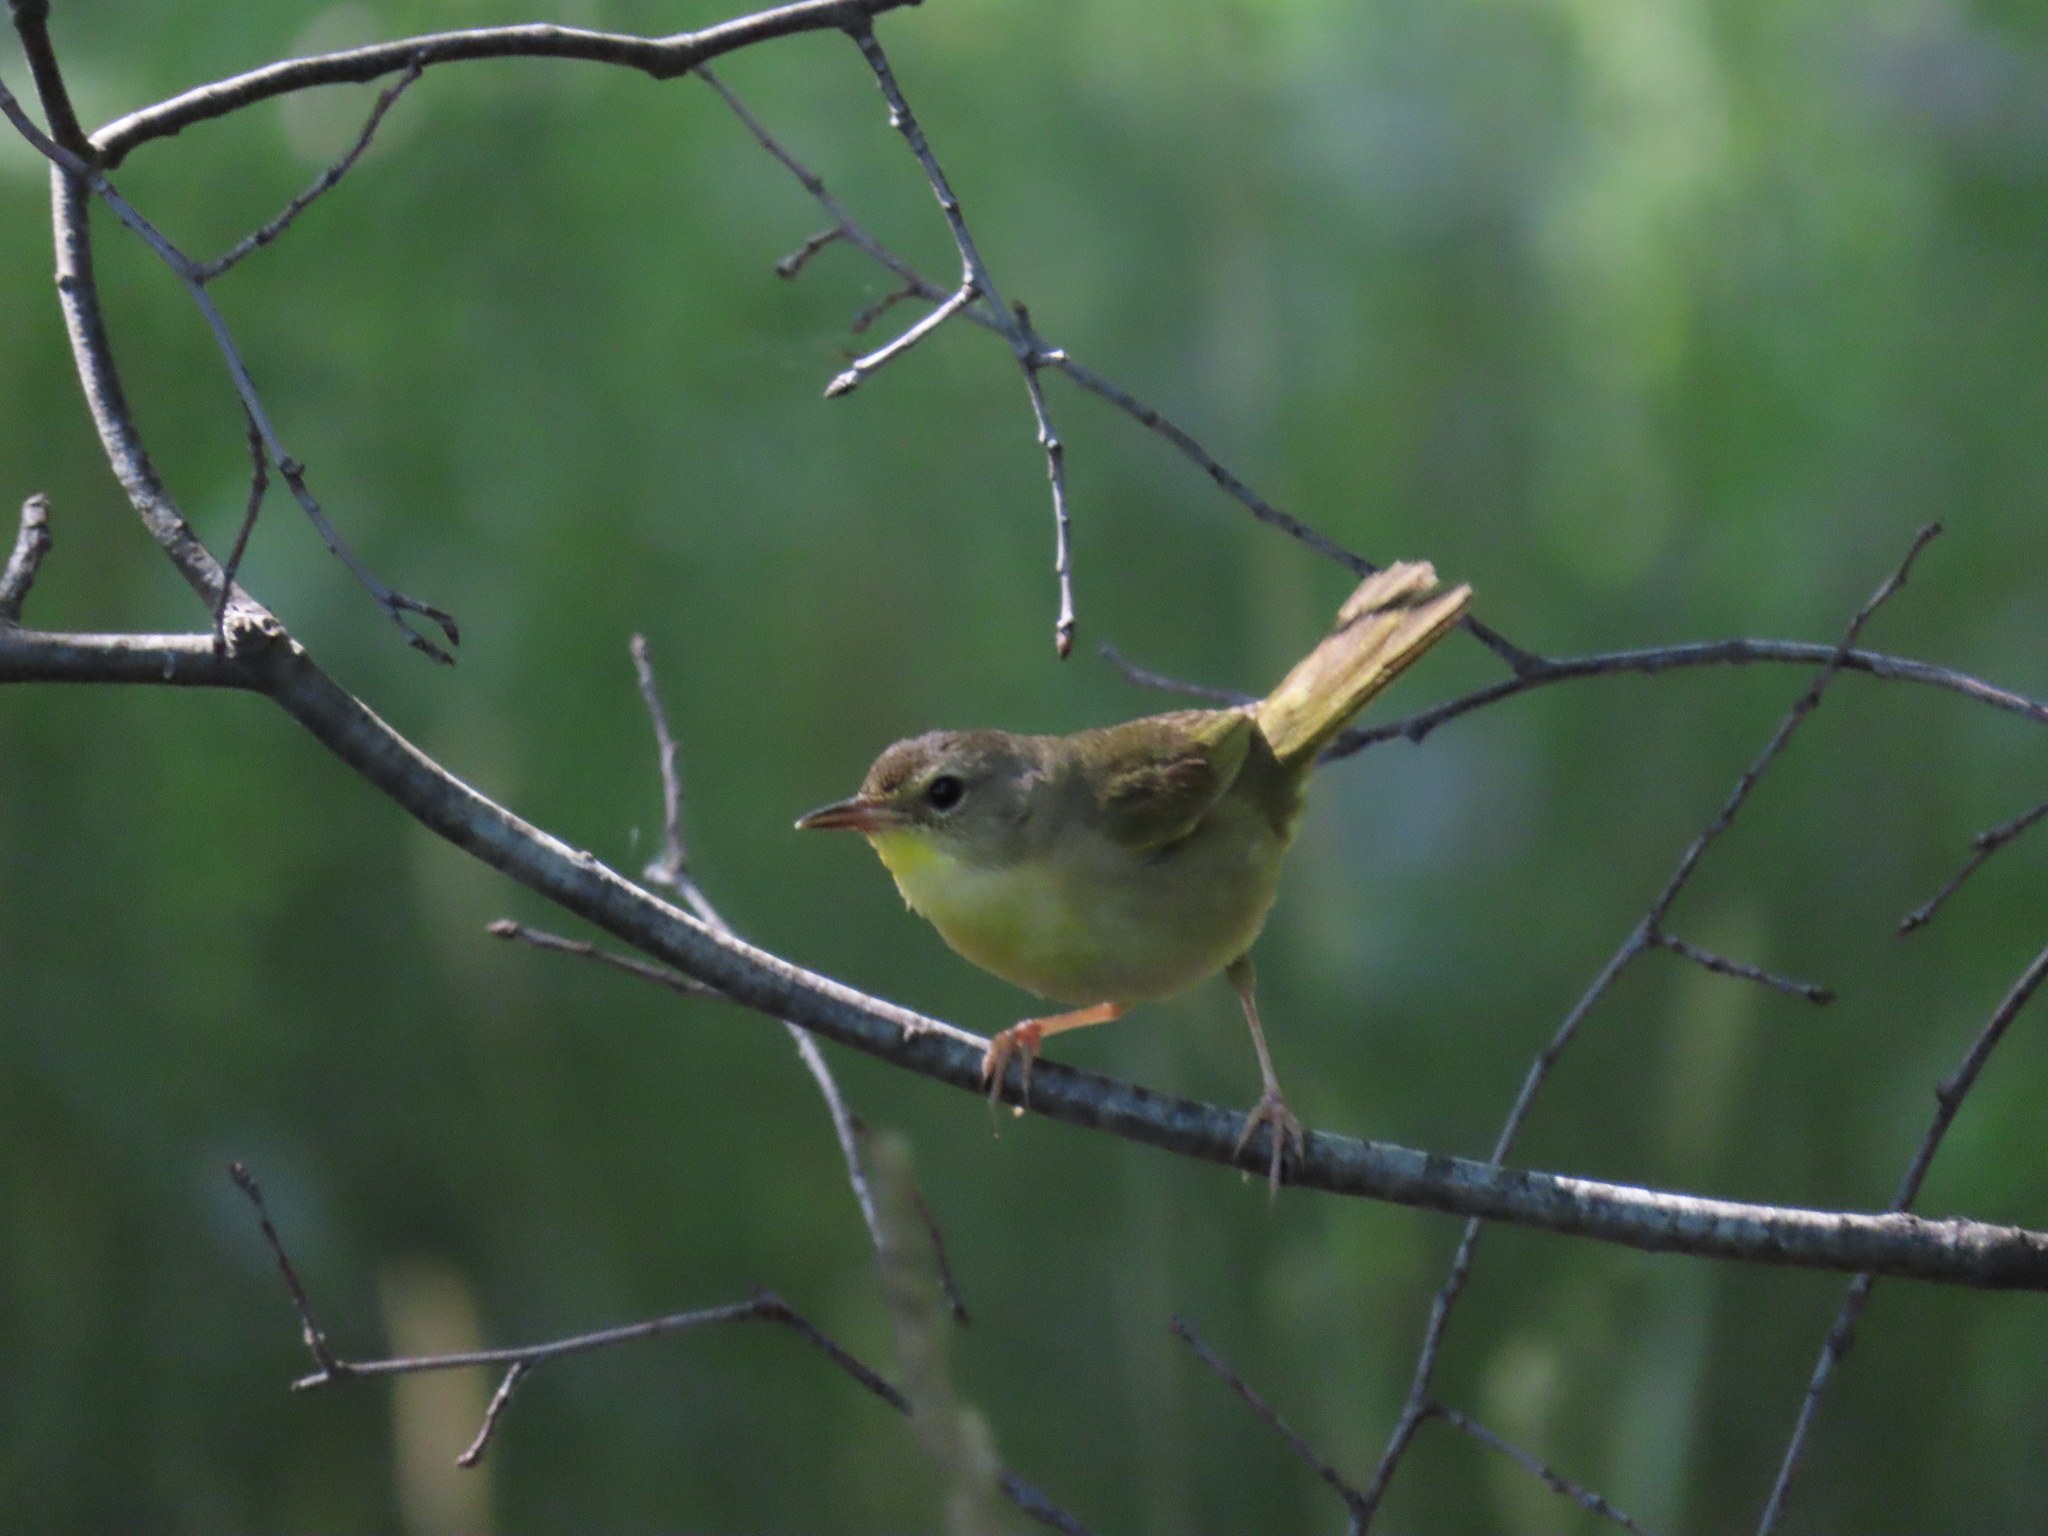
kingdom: Animalia
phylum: Chordata
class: Aves
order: Passeriformes
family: Parulidae
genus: Geothlypis
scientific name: Geothlypis trichas
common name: Common yellowthroat
